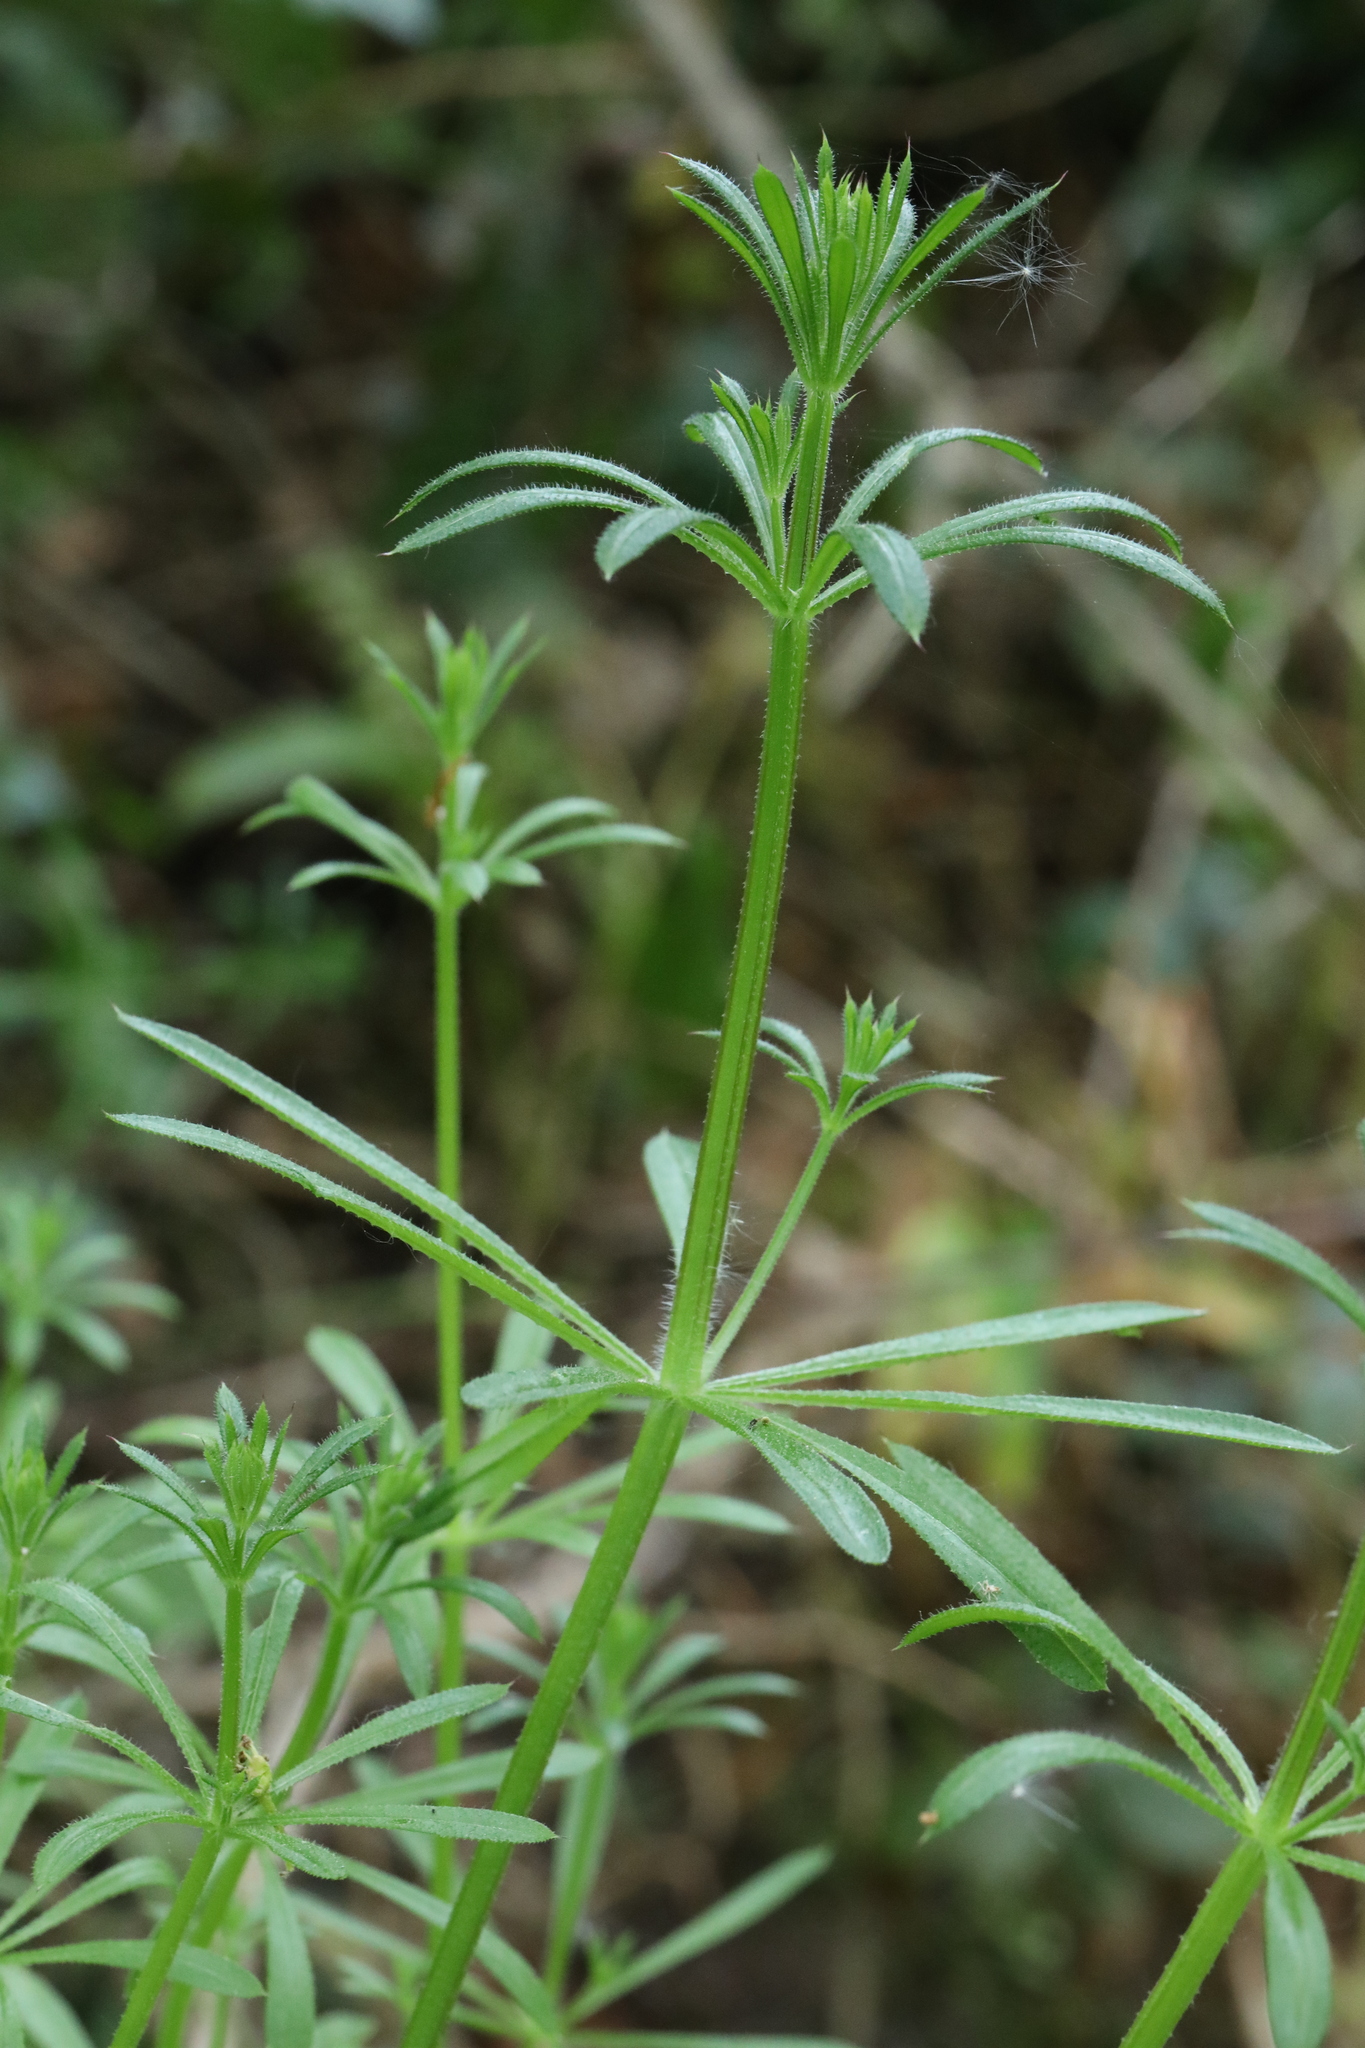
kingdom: Plantae
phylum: Tracheophyta
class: Magnoliopsida
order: Gentianales
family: Rubiaceae
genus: Galium
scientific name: Galium aparine
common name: Cleavers
